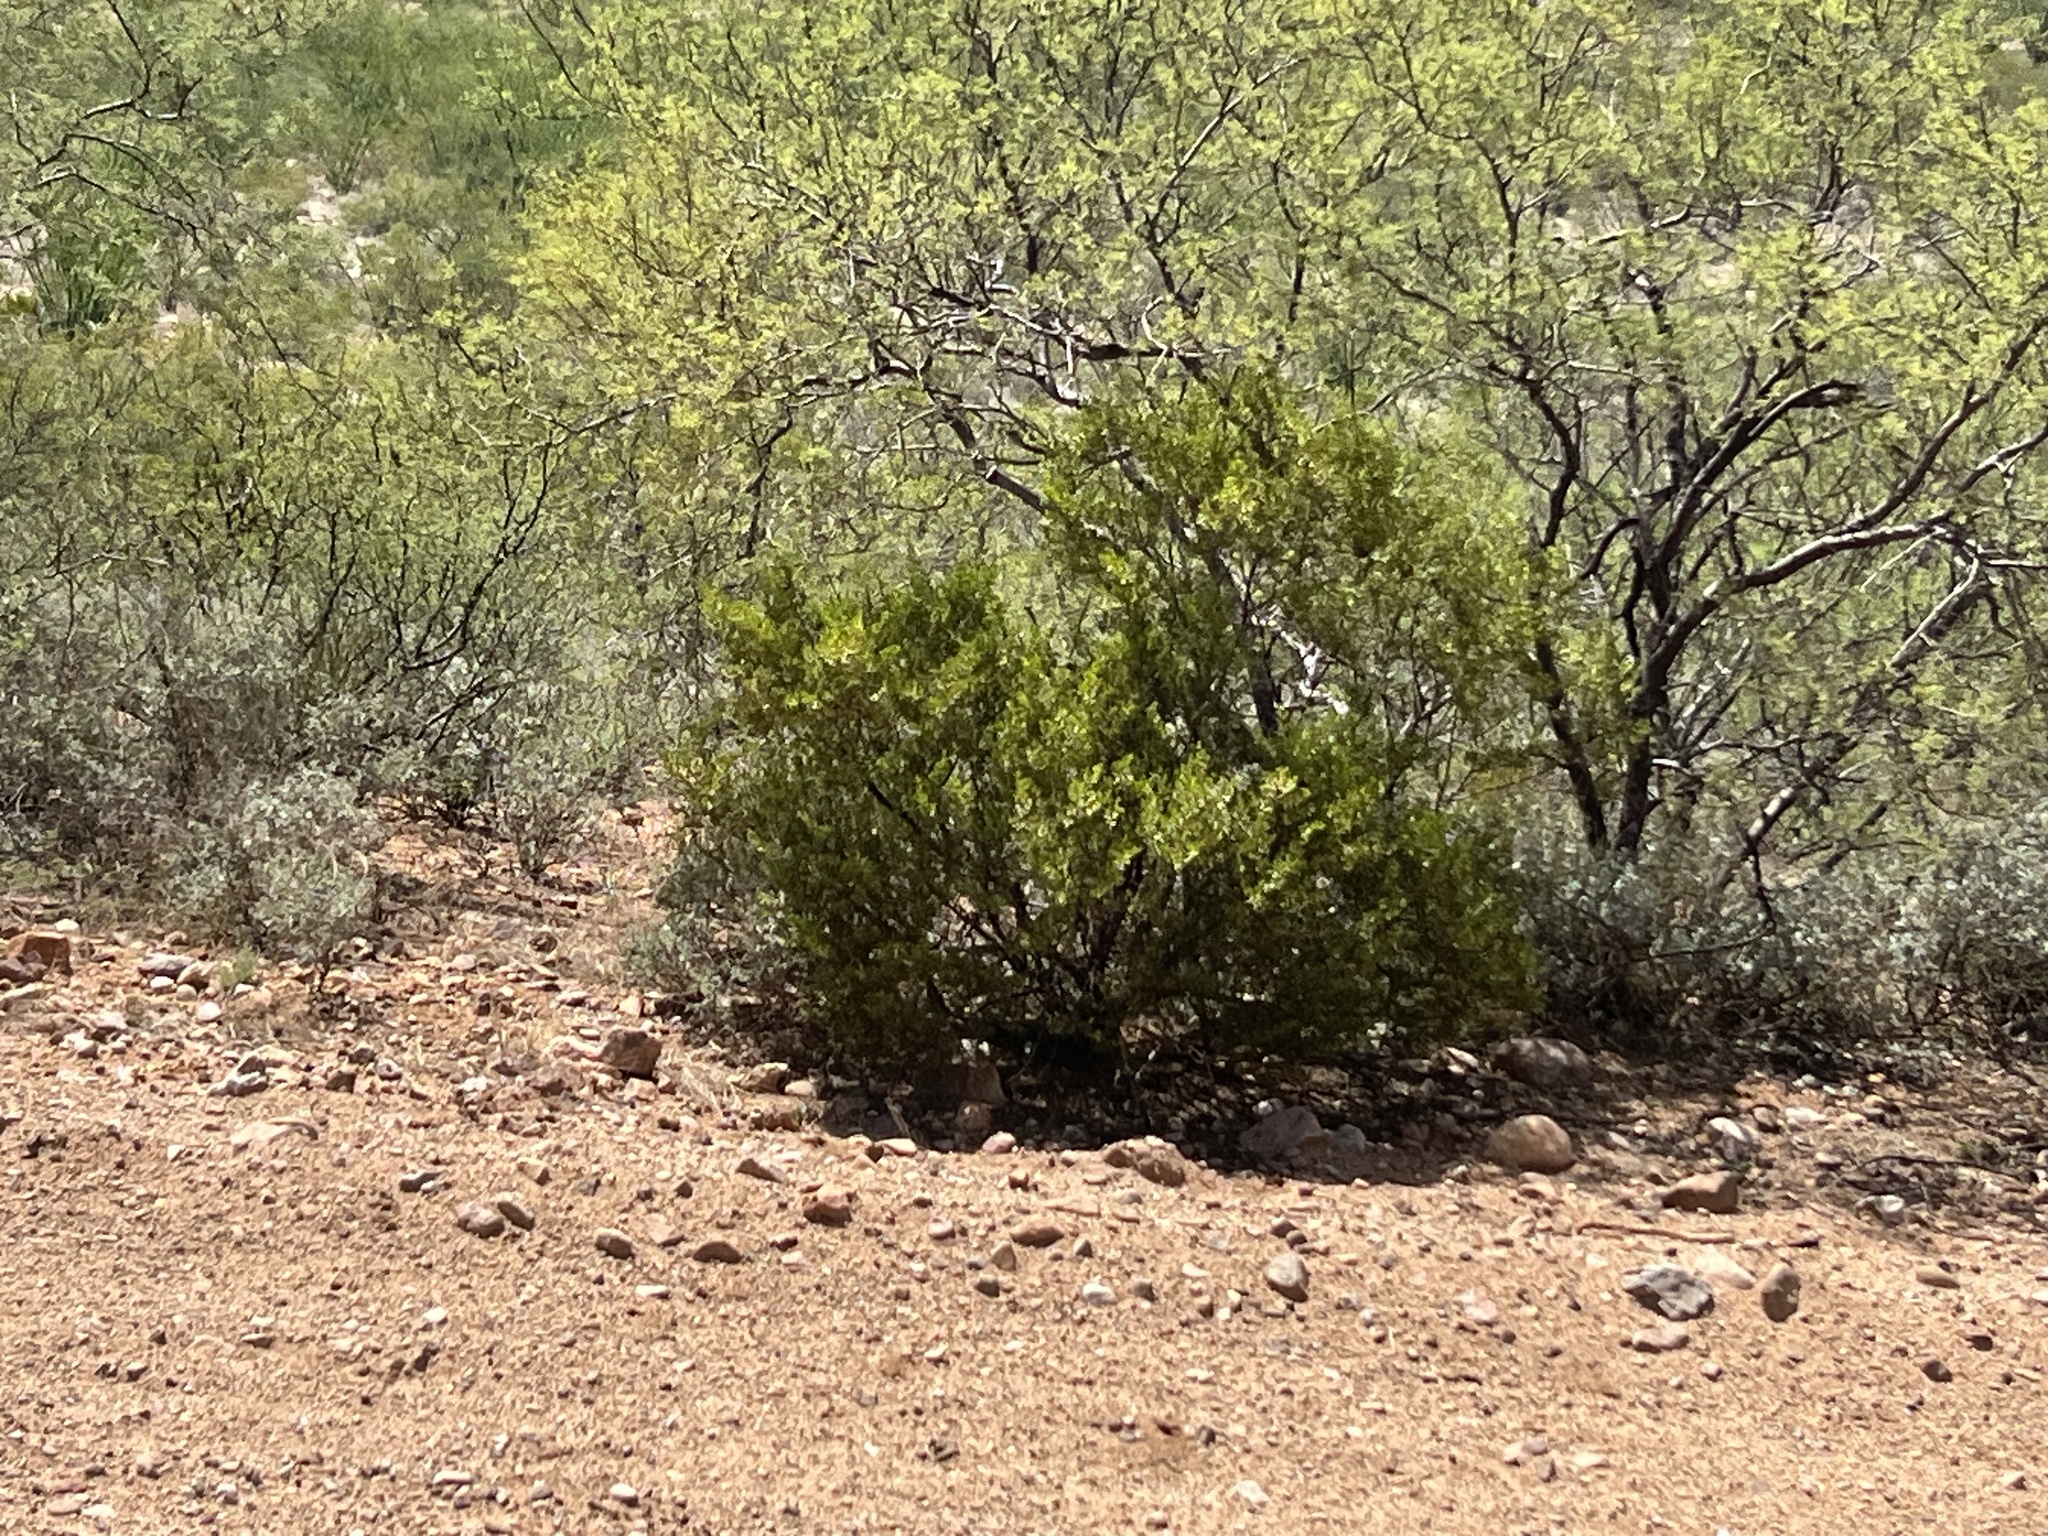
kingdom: Plantae
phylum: Tracheophyta
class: Magnoliopsida
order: Zygophyllales
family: Zygophyllaceae
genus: Larrea
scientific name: Larrea tridentata
